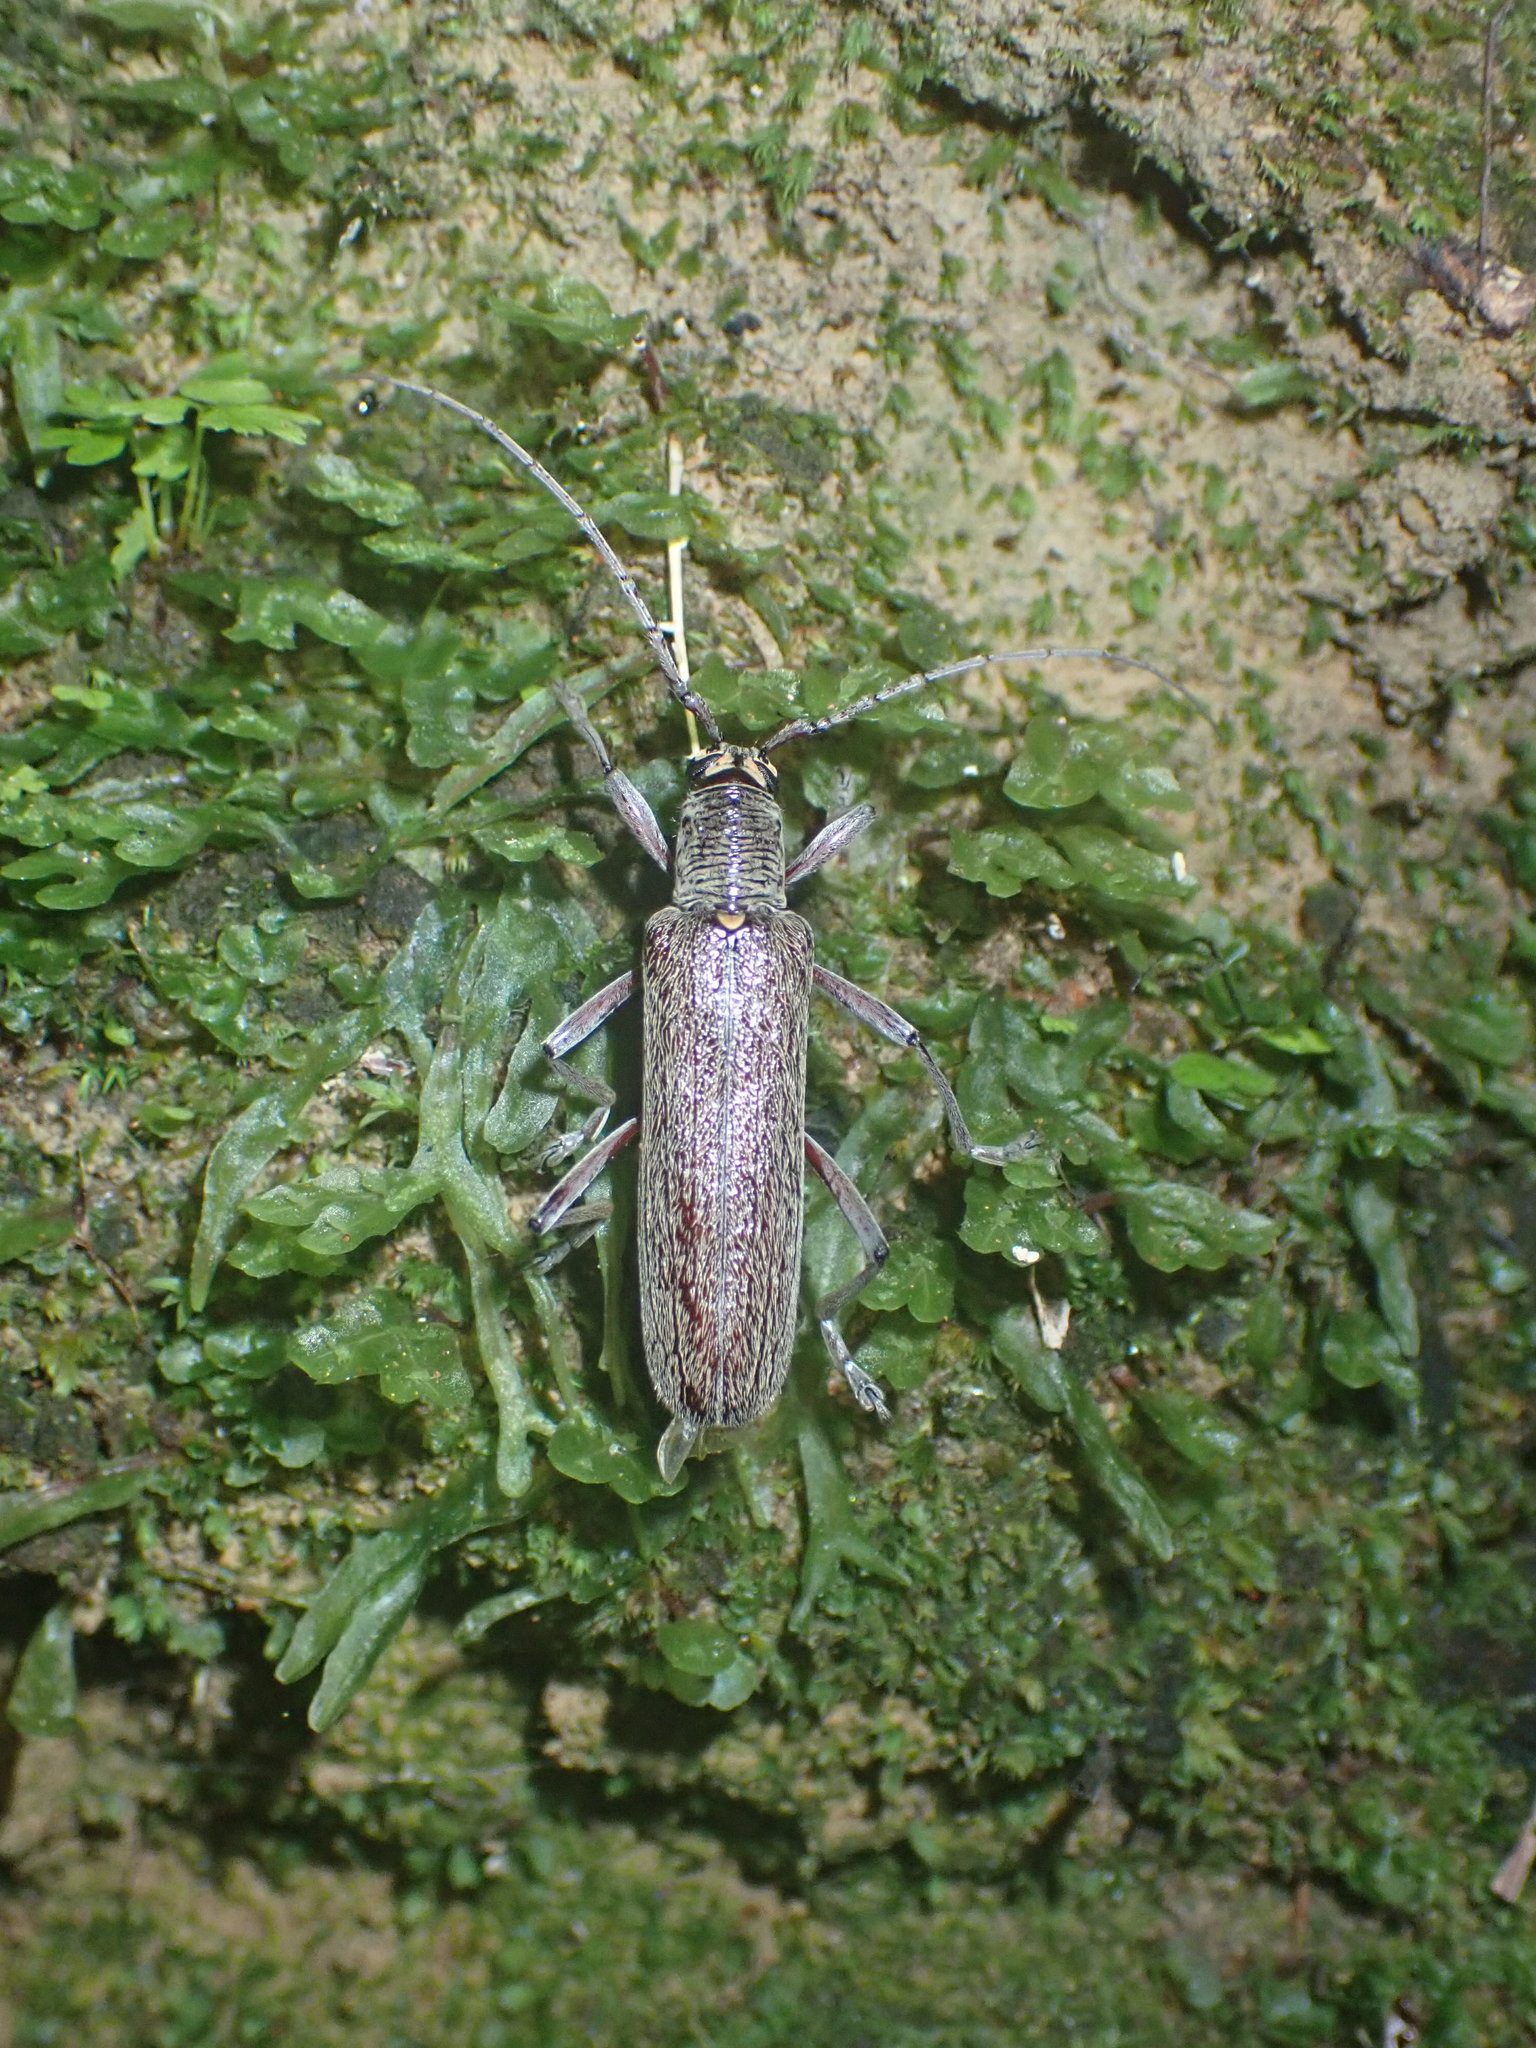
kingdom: Animalia
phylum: Arthropoda
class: Insecta
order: Coleoptera
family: Cerambycidae
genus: Oemona
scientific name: Oemona hirta
